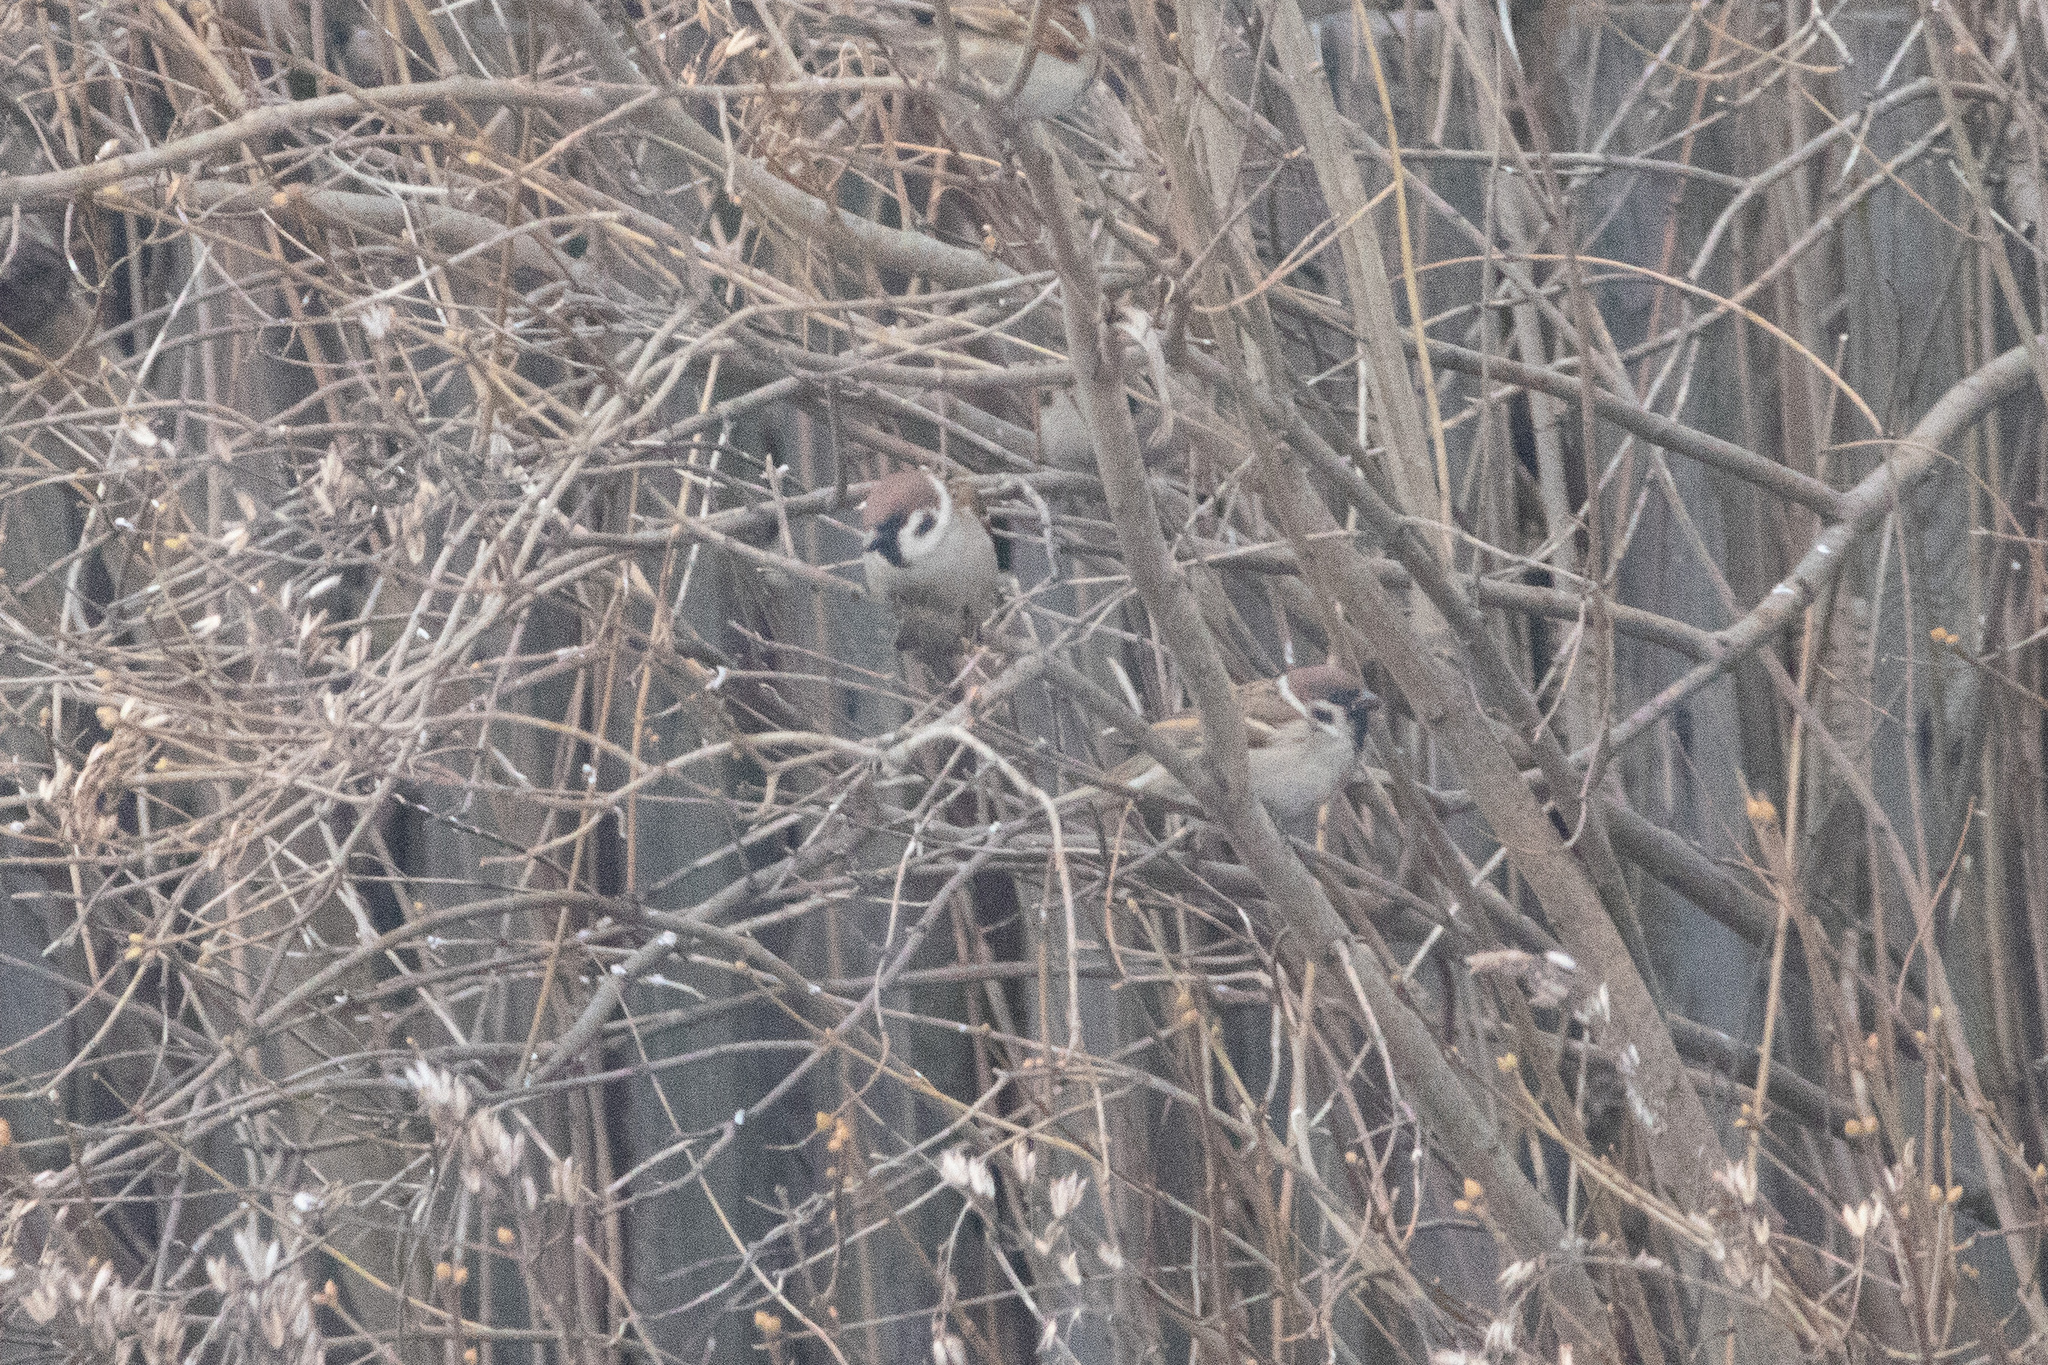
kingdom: Animalia
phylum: Chordata
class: Aves
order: Passeriformes
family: Passeridae
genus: Passer
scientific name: Passer montanus
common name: Eurasian tree sparrow
